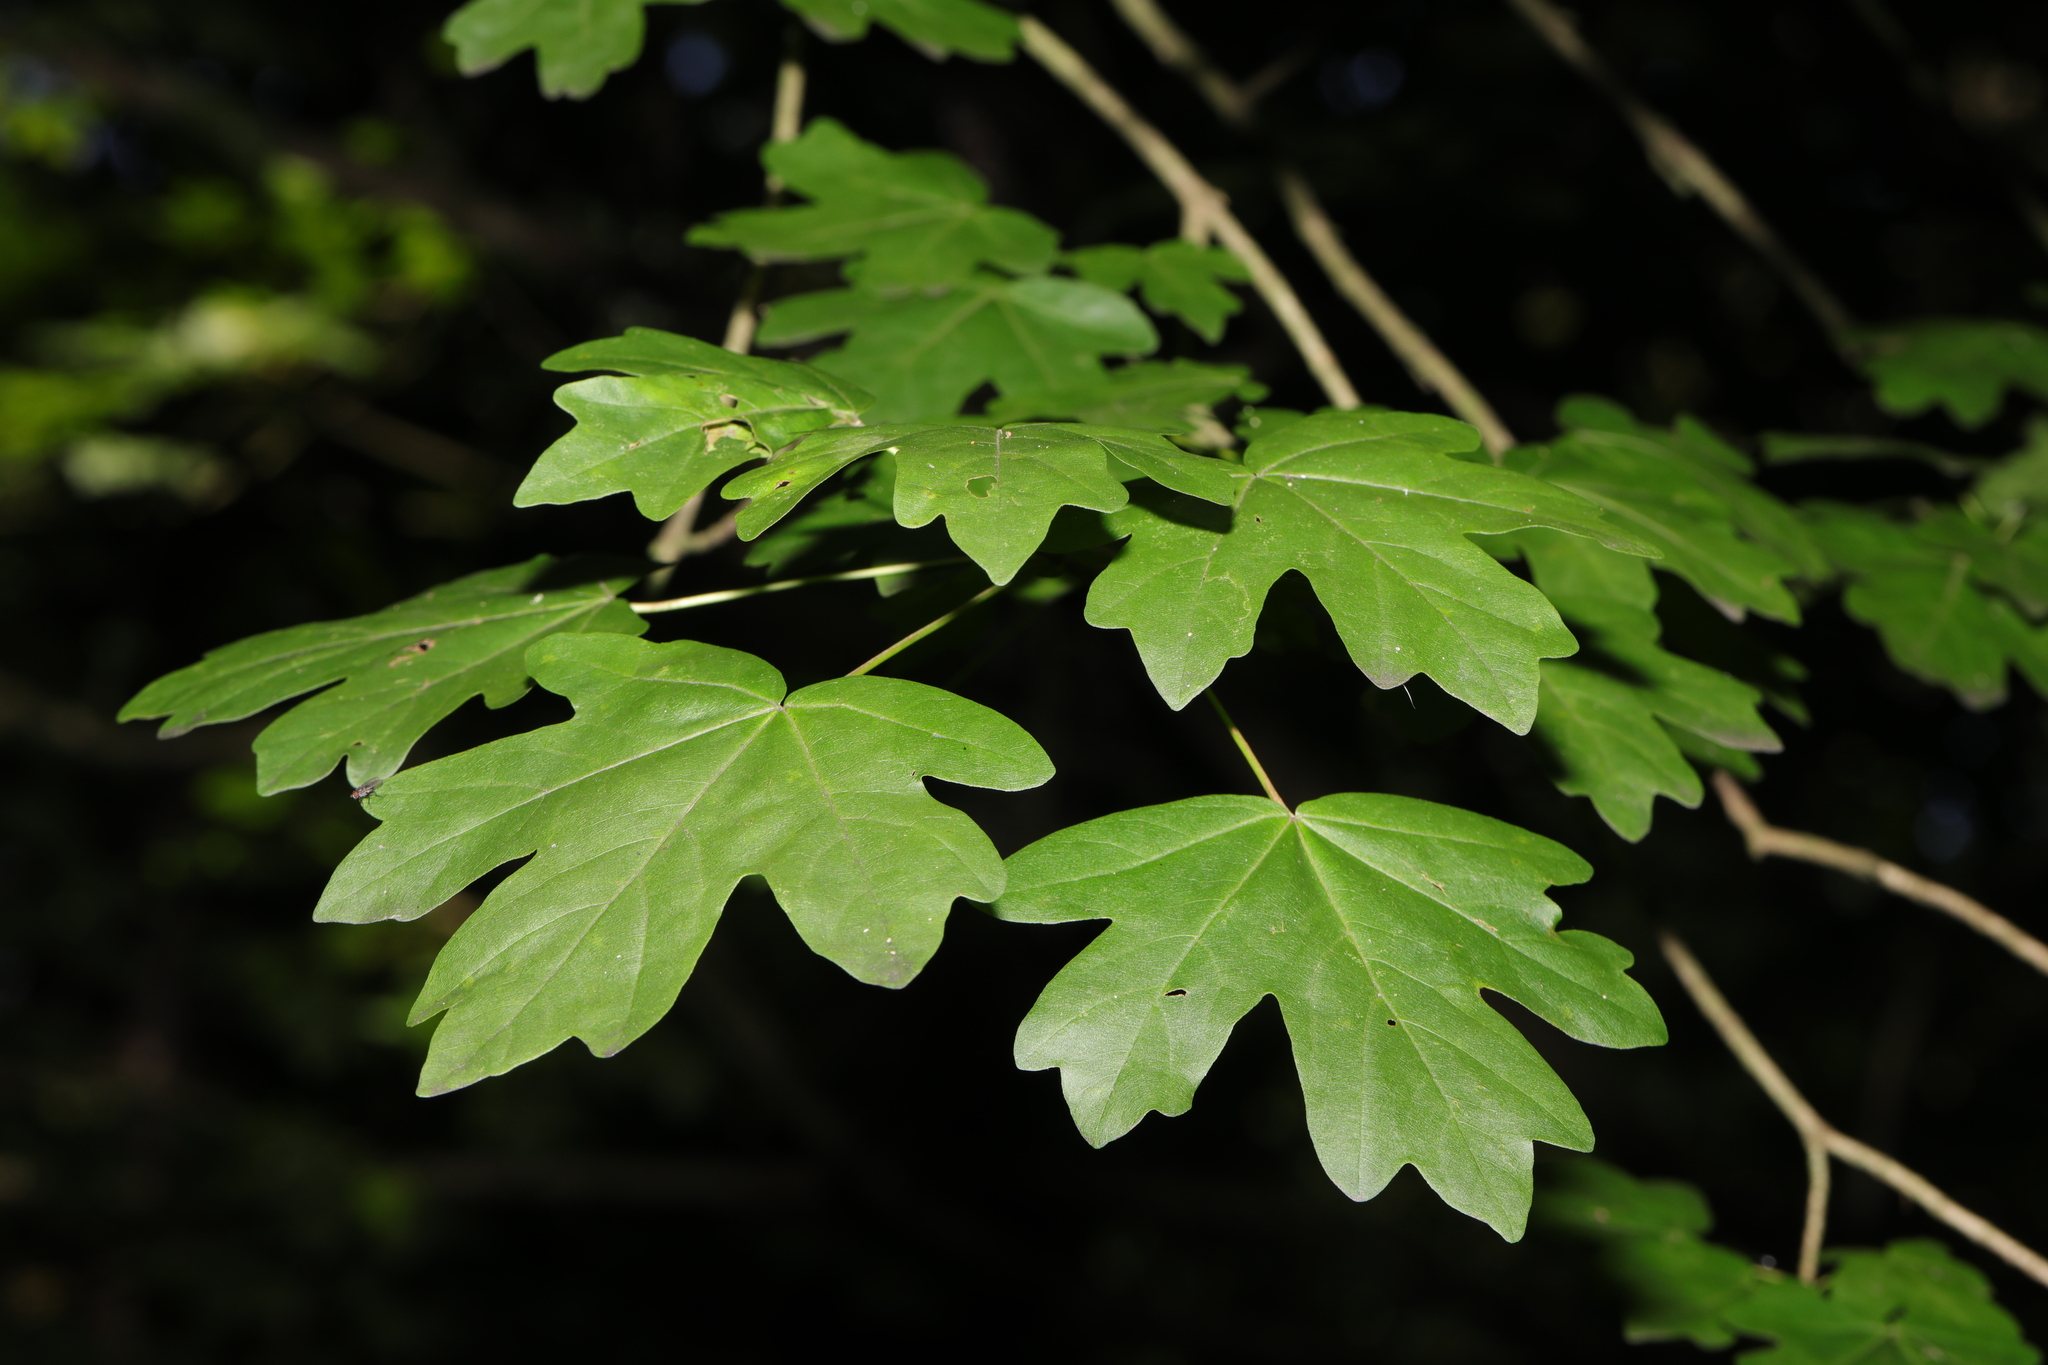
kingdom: Plantae
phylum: Tracheophyta
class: Magnoliopsida
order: Sapindales
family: Sapindaceae
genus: Acer
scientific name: Acer campestre
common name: Field maple
